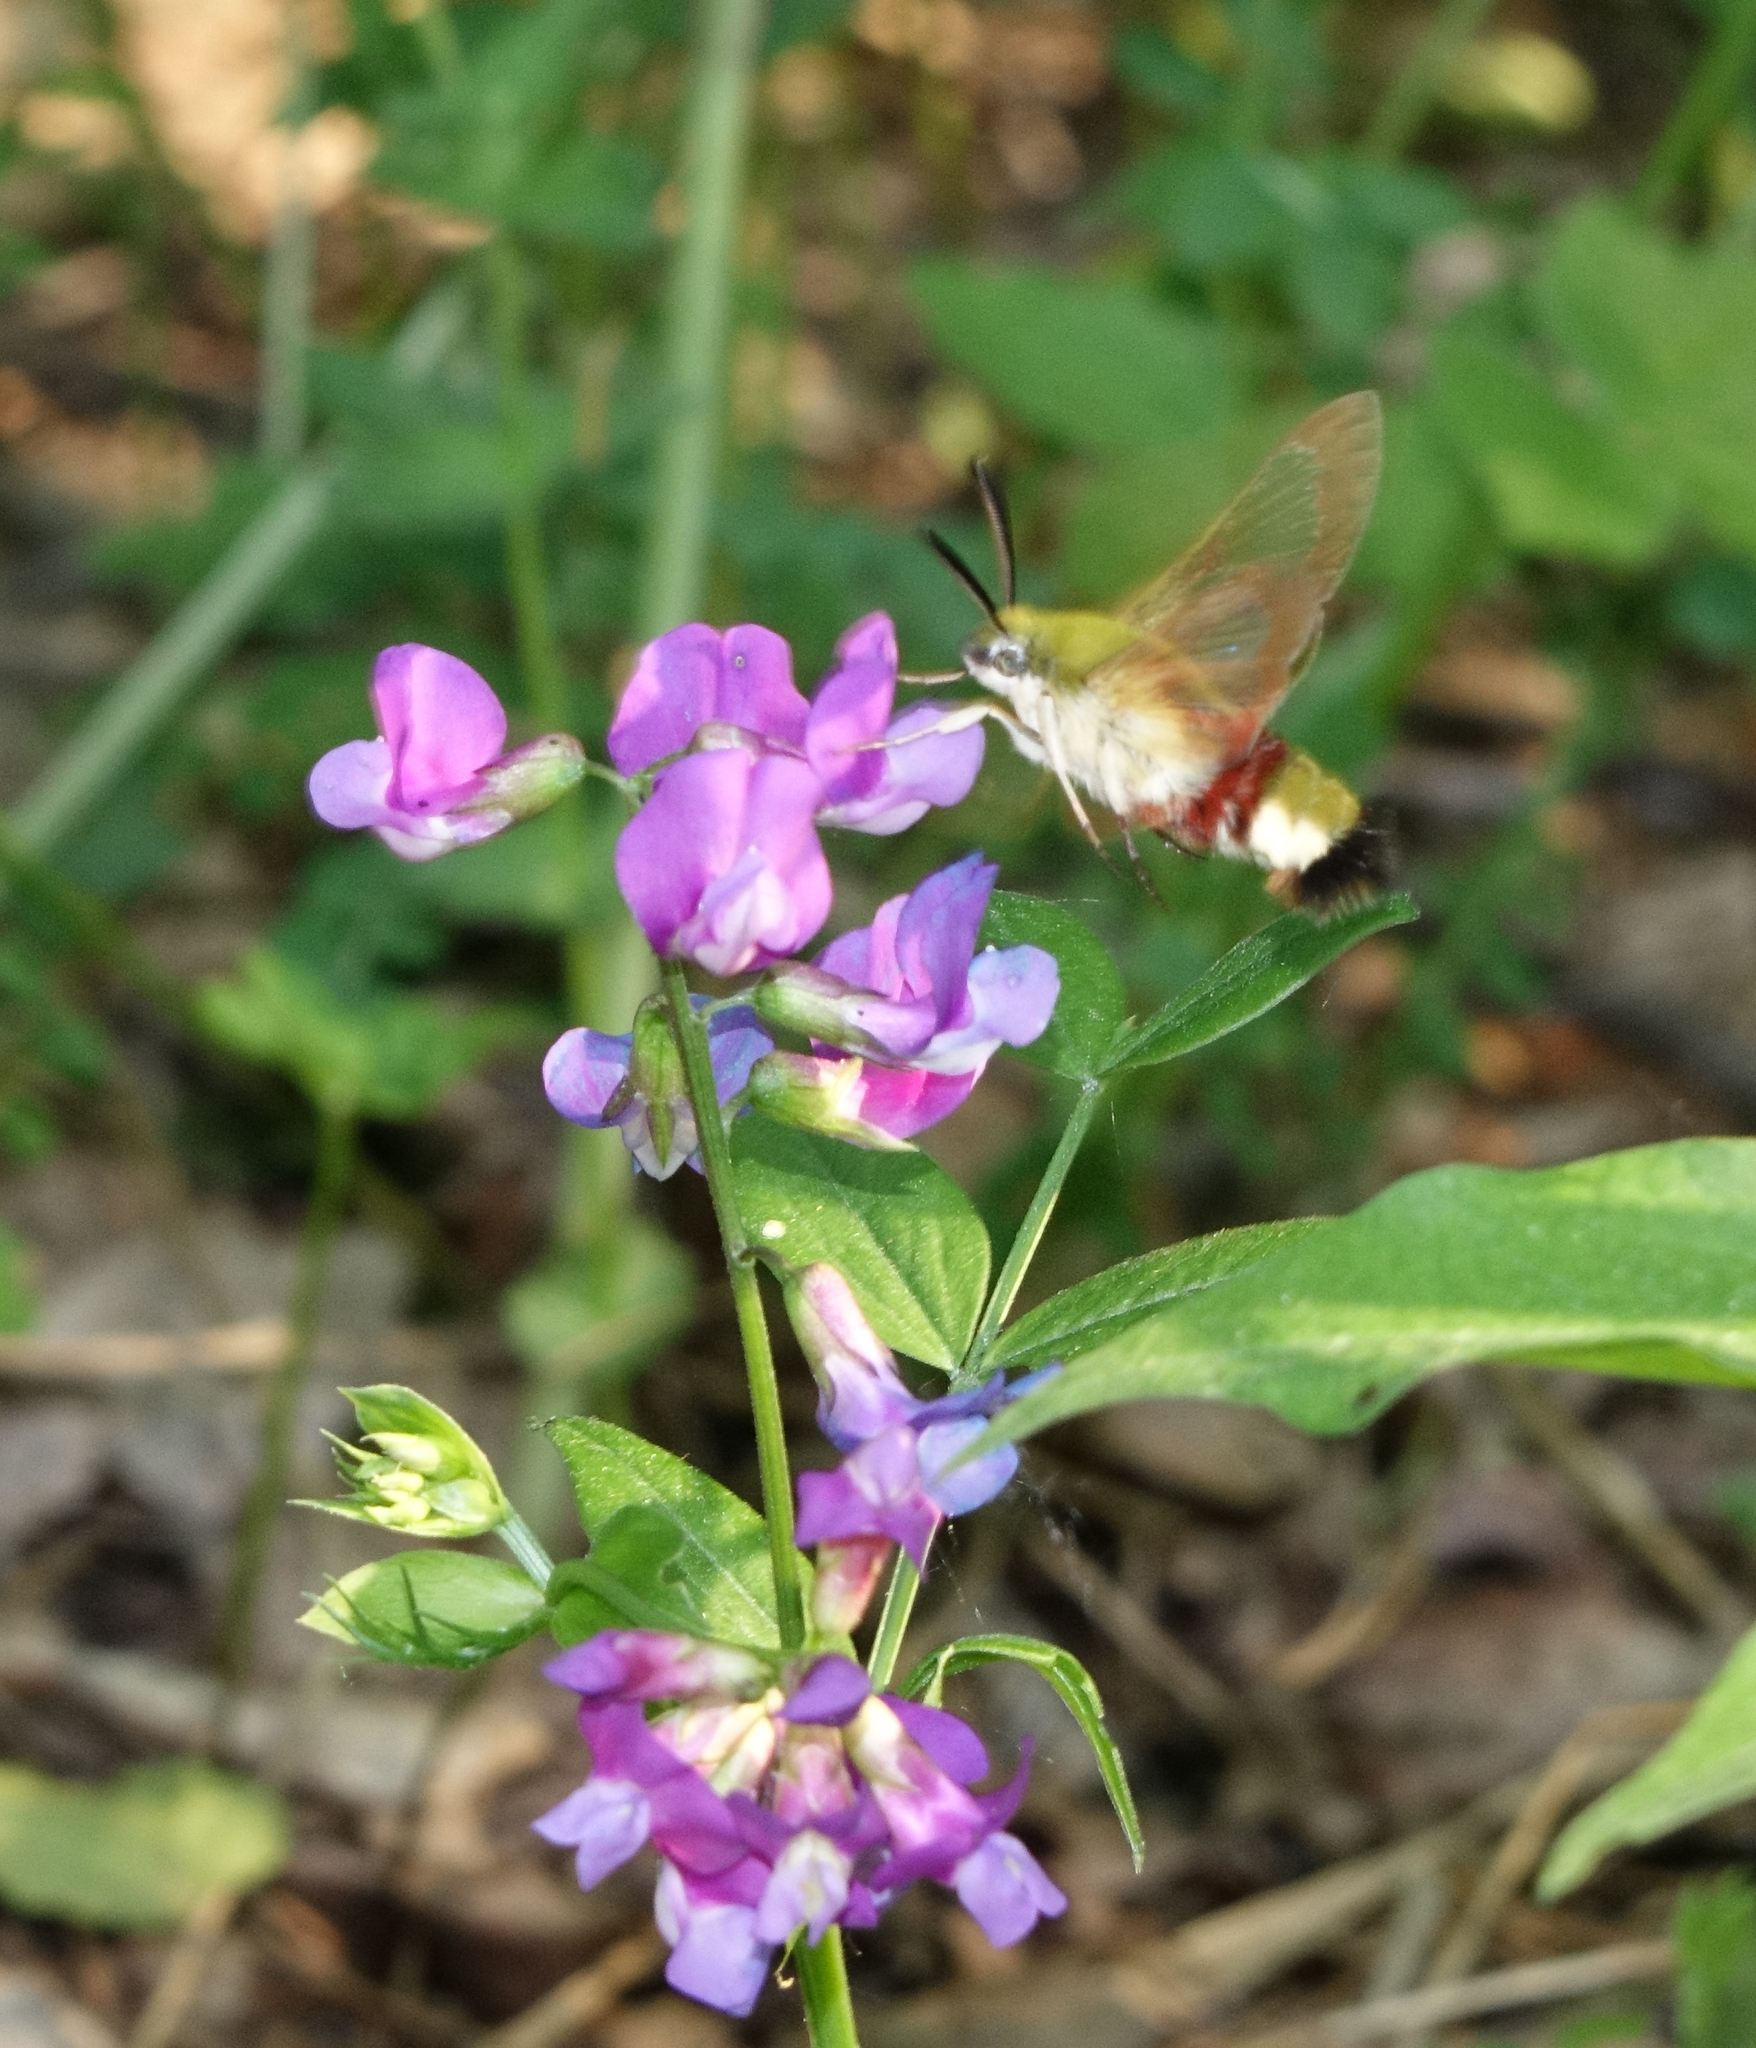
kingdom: Animalia
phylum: Arthropoda
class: Insecta
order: Lepidoptera
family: Sphingidae
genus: Hemaris
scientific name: Hemaris fuciformis
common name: Broad-bordered bee hawk-moth
